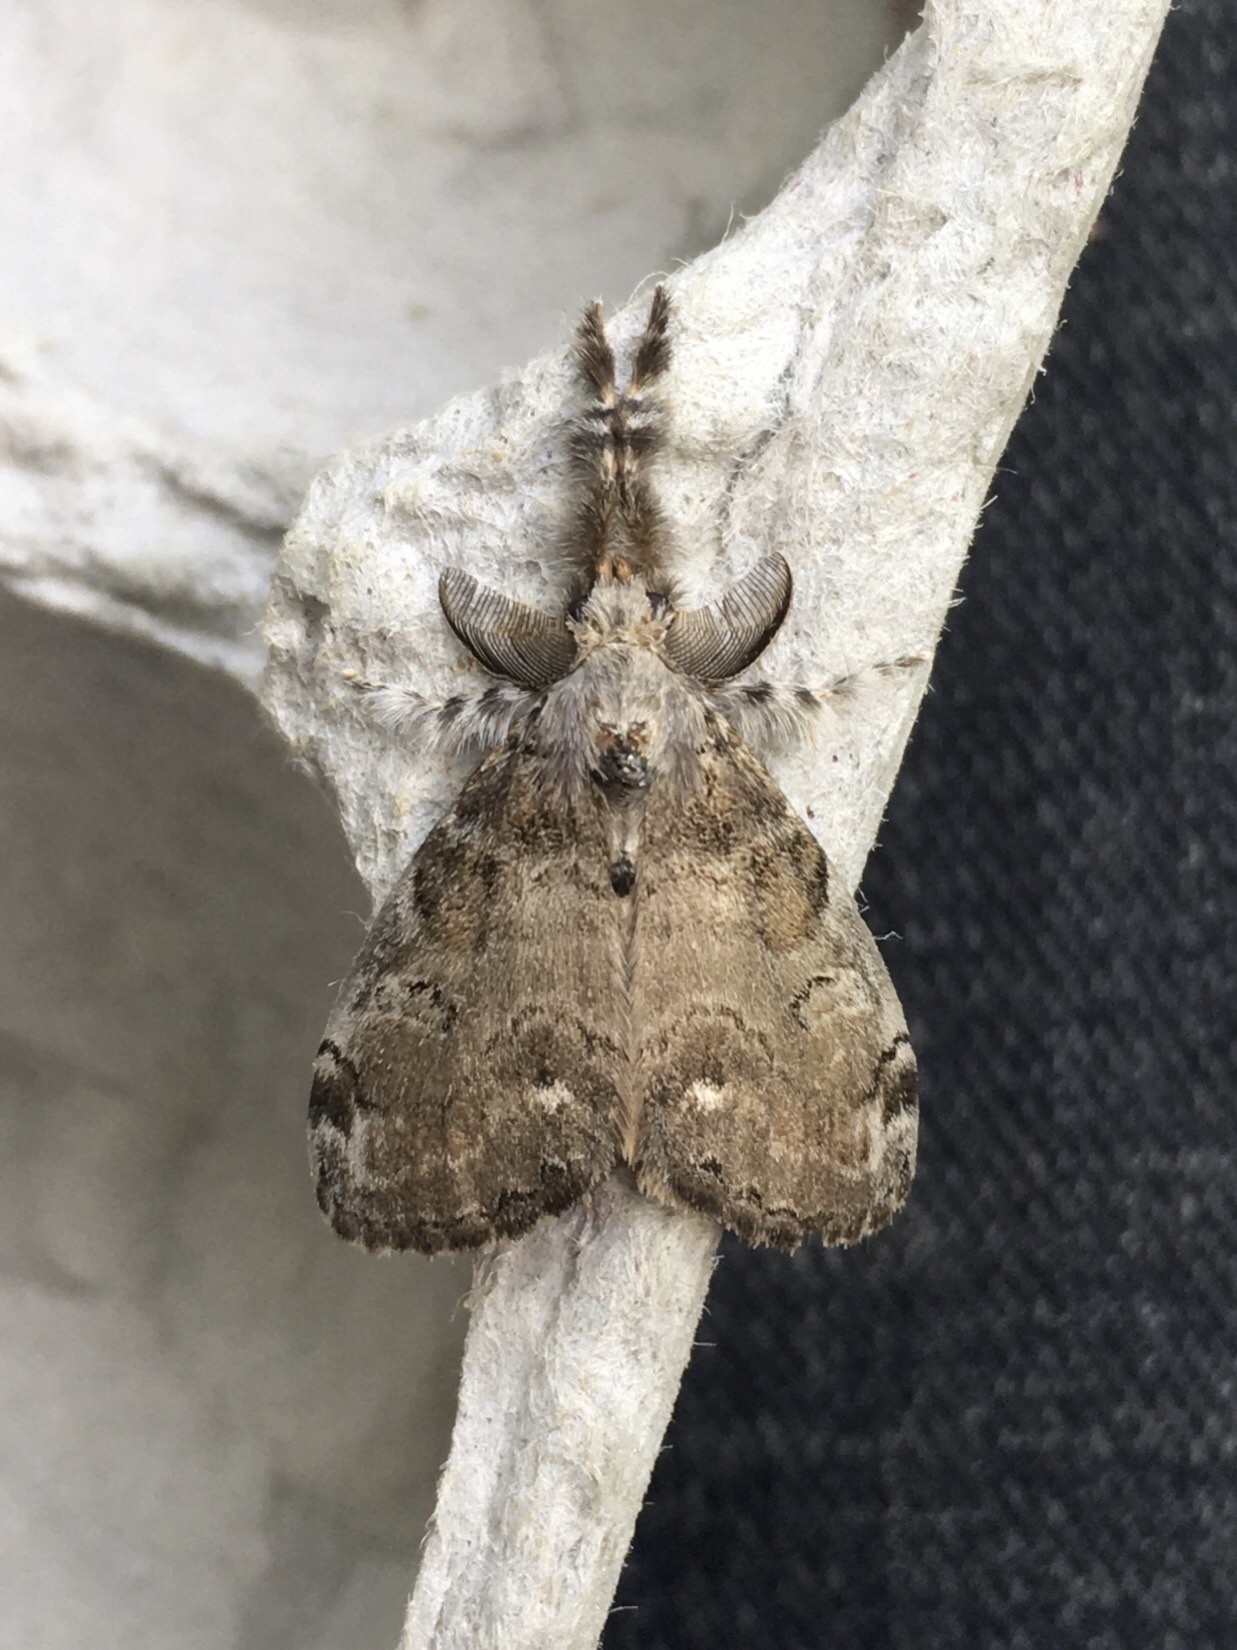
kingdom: Animalia
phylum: Arthropoda
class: Insecta
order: Lepidoptera
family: Erebidae
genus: Orgyia
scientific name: Orgyia leucostigma
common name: White-marked tussock moth
